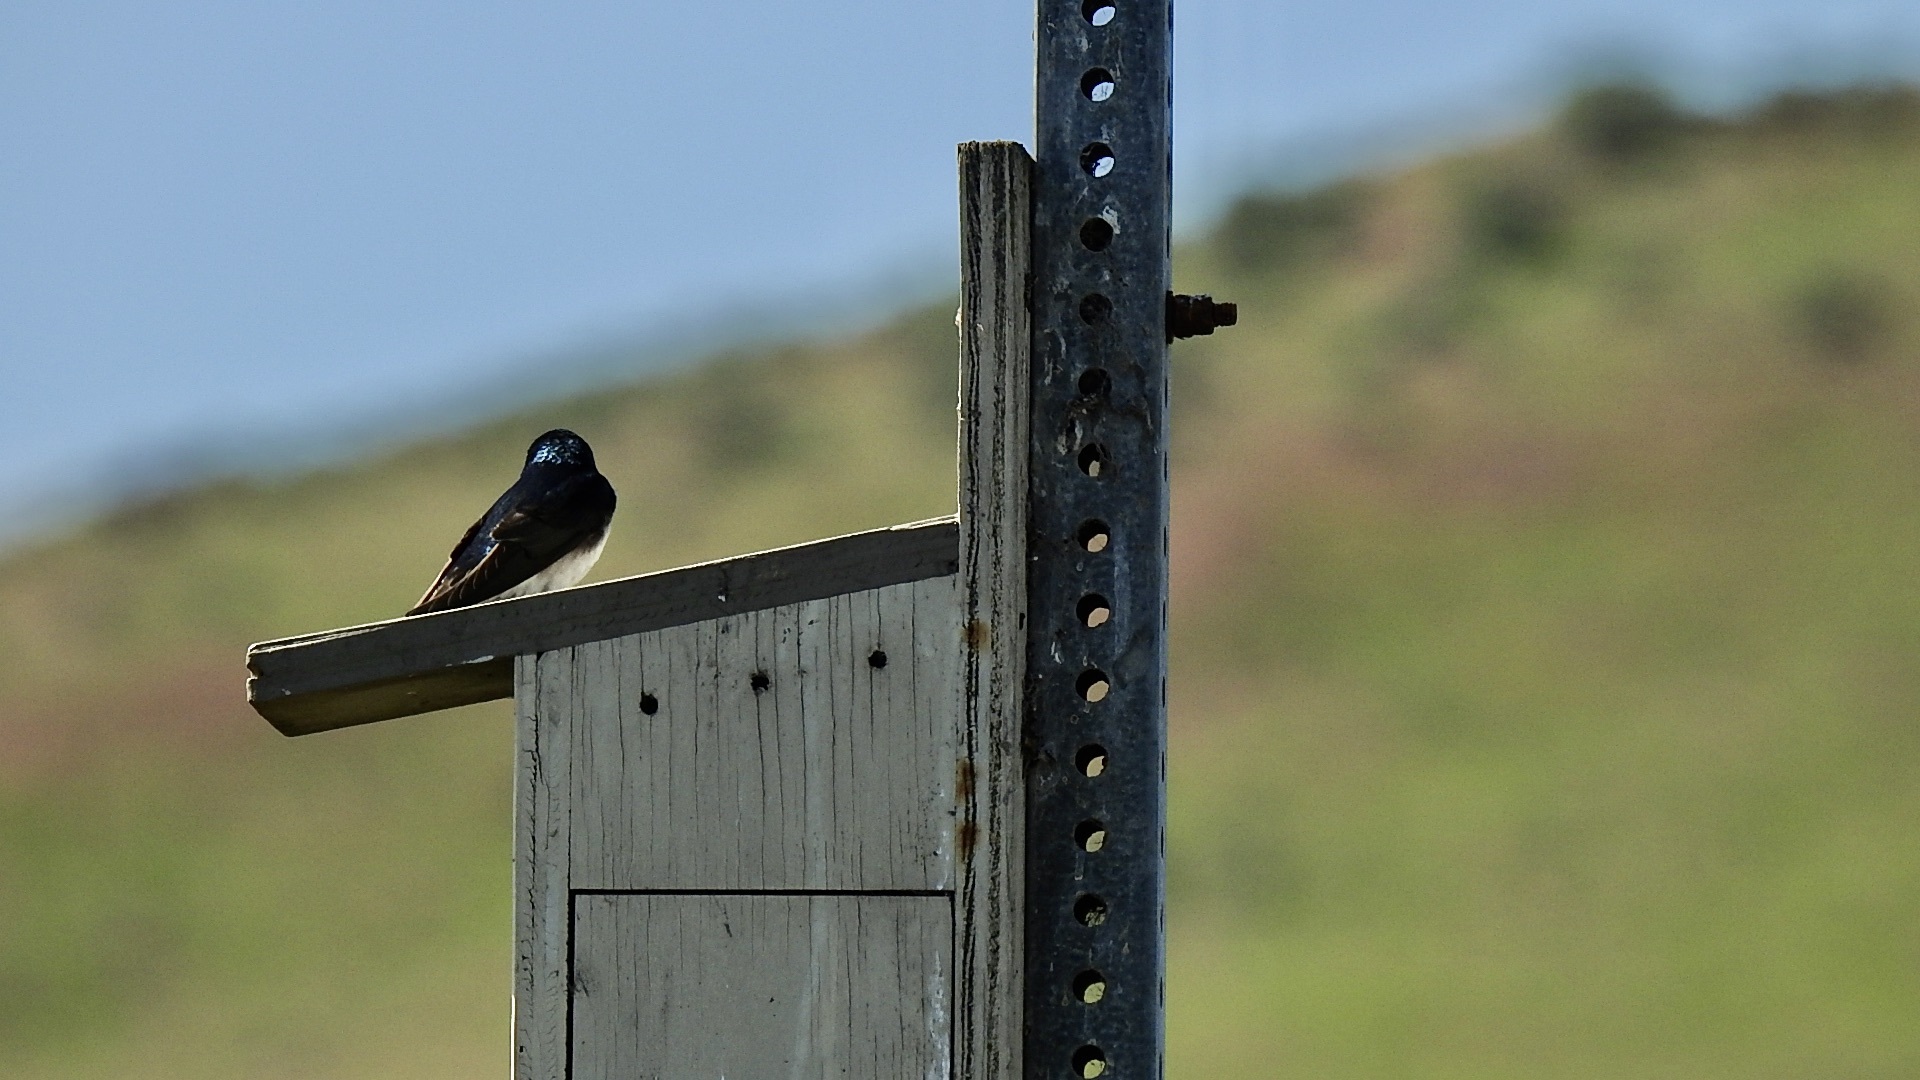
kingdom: Animalia
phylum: Chordata
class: Aves
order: Passeriformes
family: Hirundinidae
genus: Tachycineta
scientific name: Tachycineta bicolor
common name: Tree swallow
